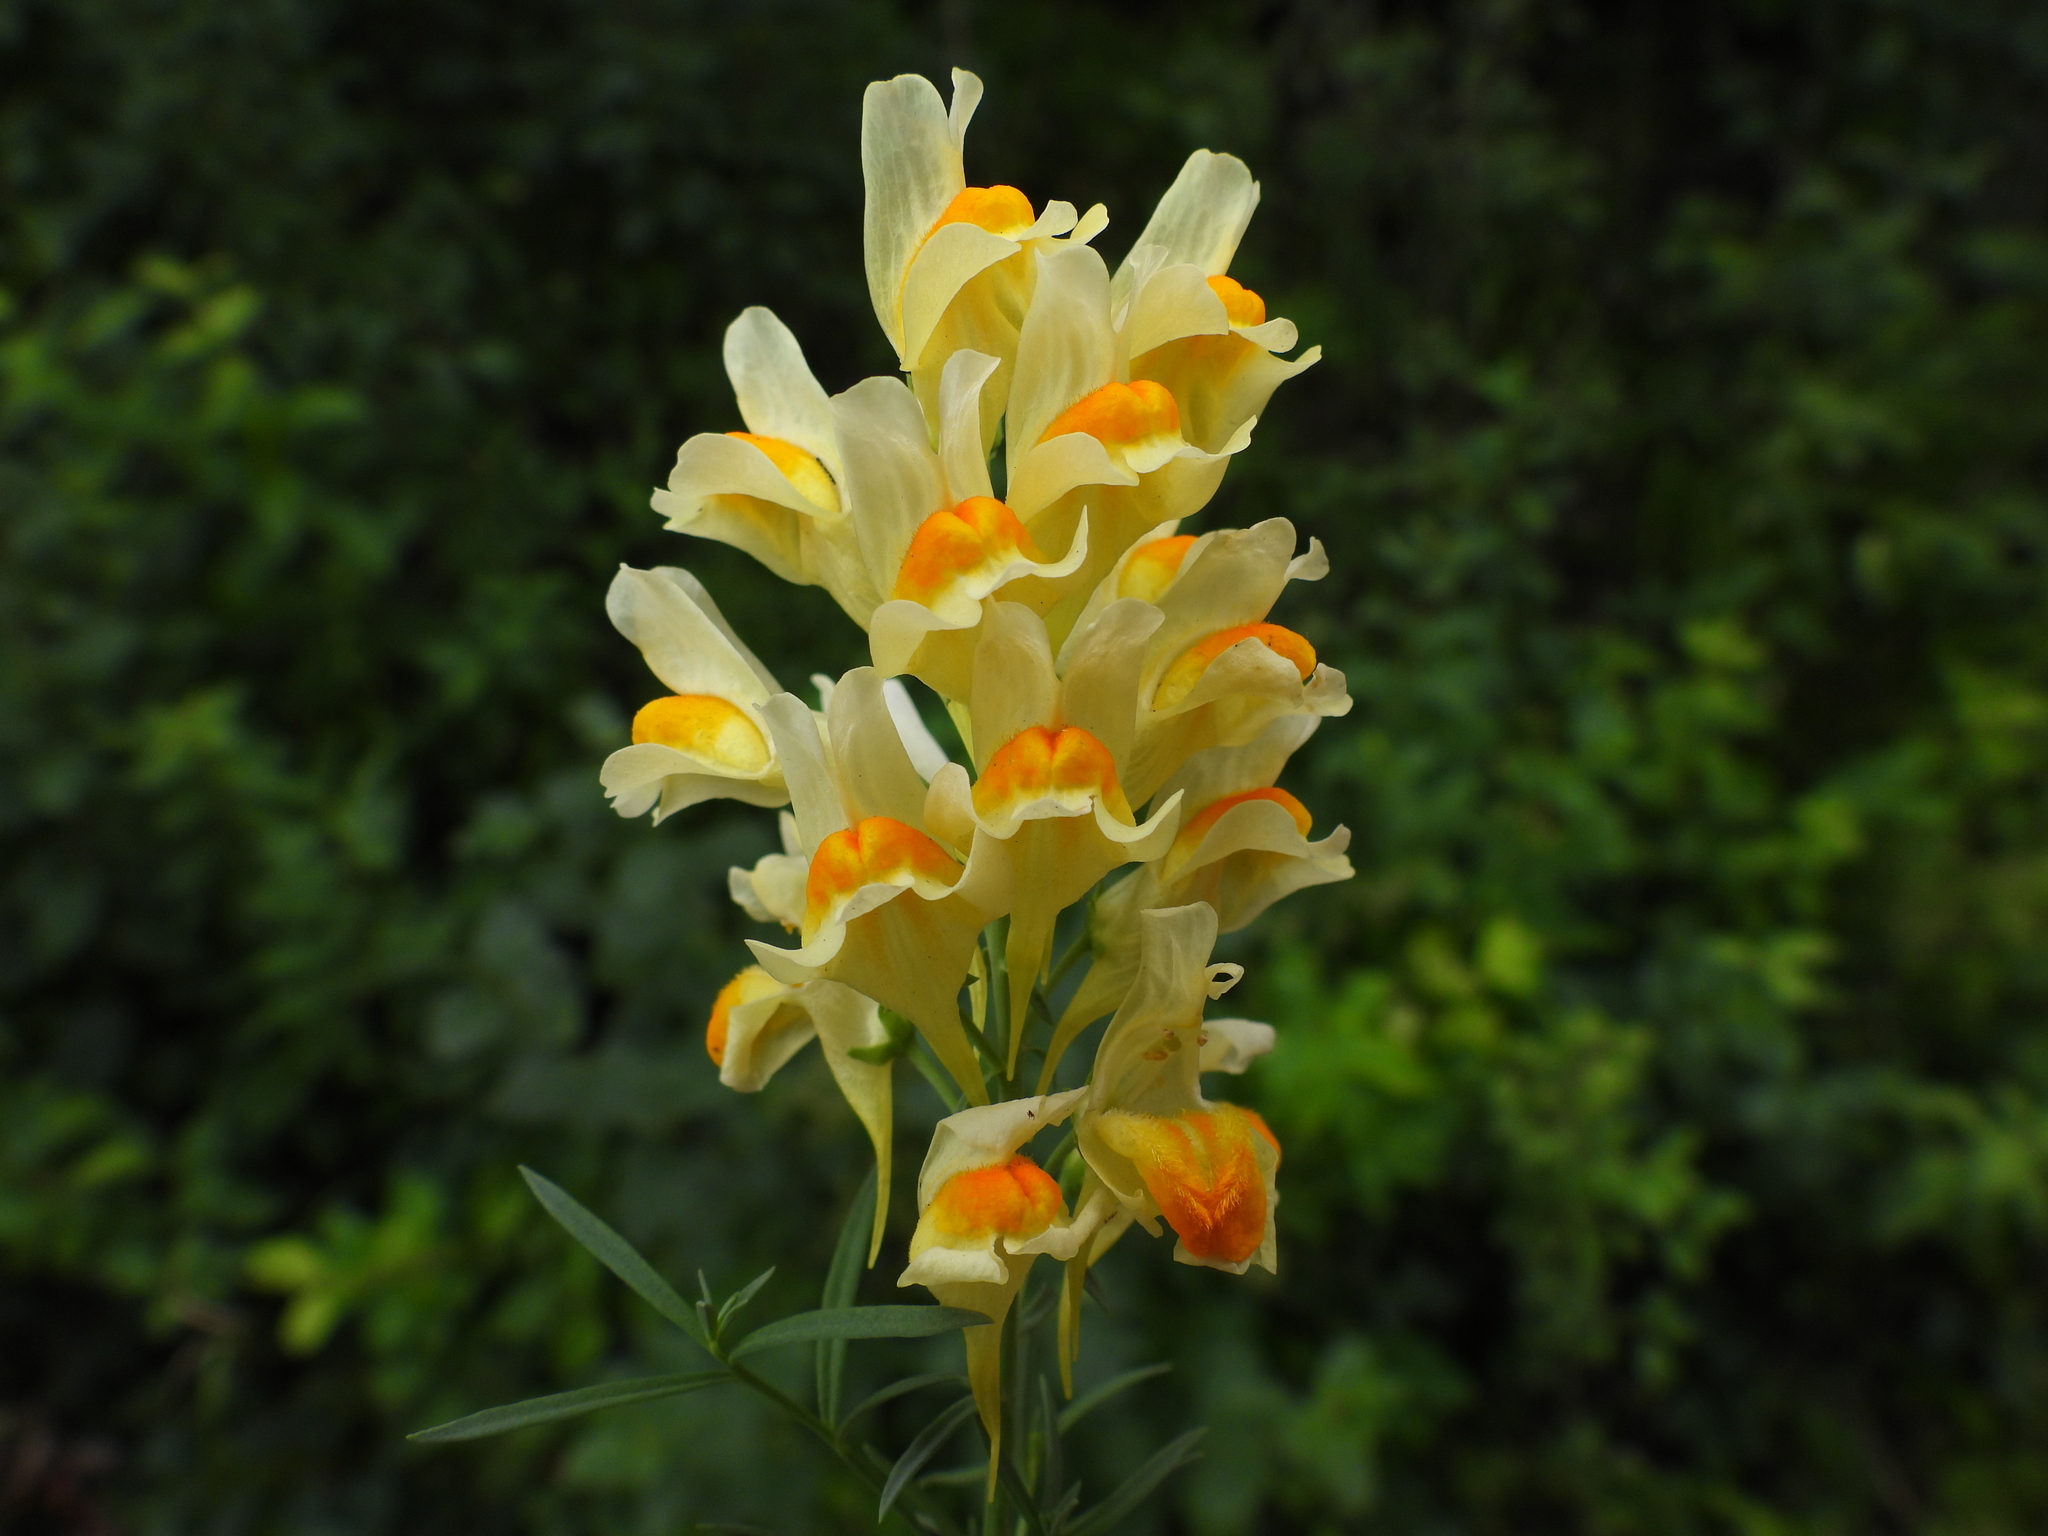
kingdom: Plantae
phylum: Tracheophyta
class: Magnoliopsida
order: Lamiales
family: Plantaginaceae
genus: Linaria
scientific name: Linaria vulgaris
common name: Butter and eggs
